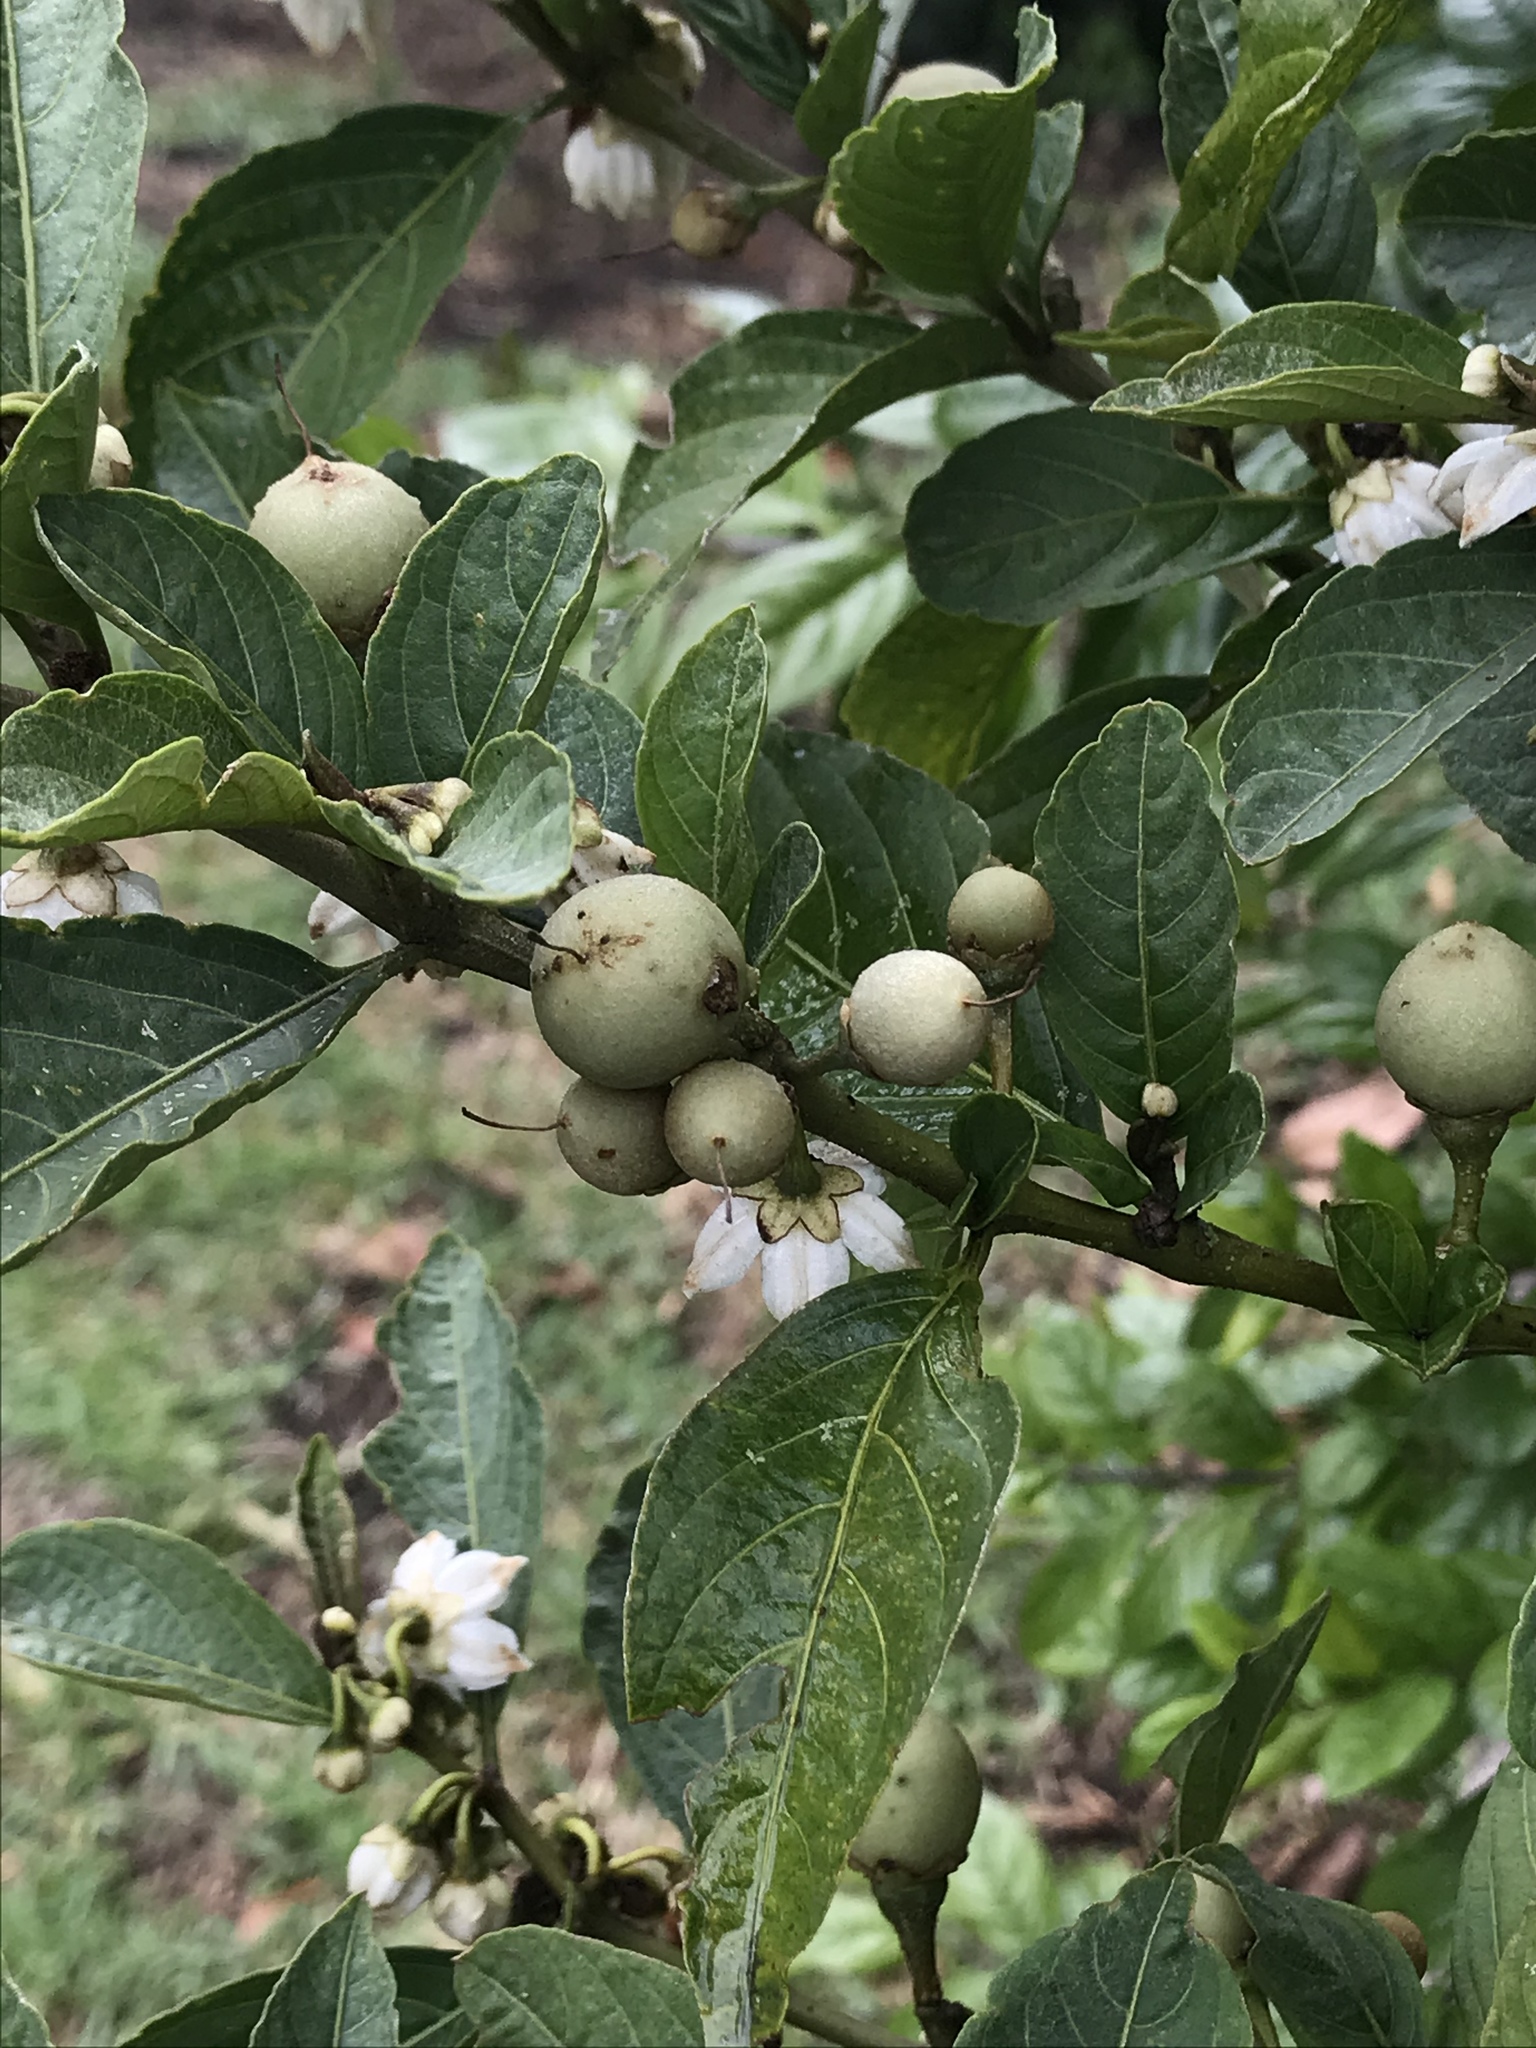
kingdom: Plantae
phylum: Tracheophyta
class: Magnoliopsida
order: Solanales
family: Solanaceae
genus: Solanum
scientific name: Solanum cornifolium
